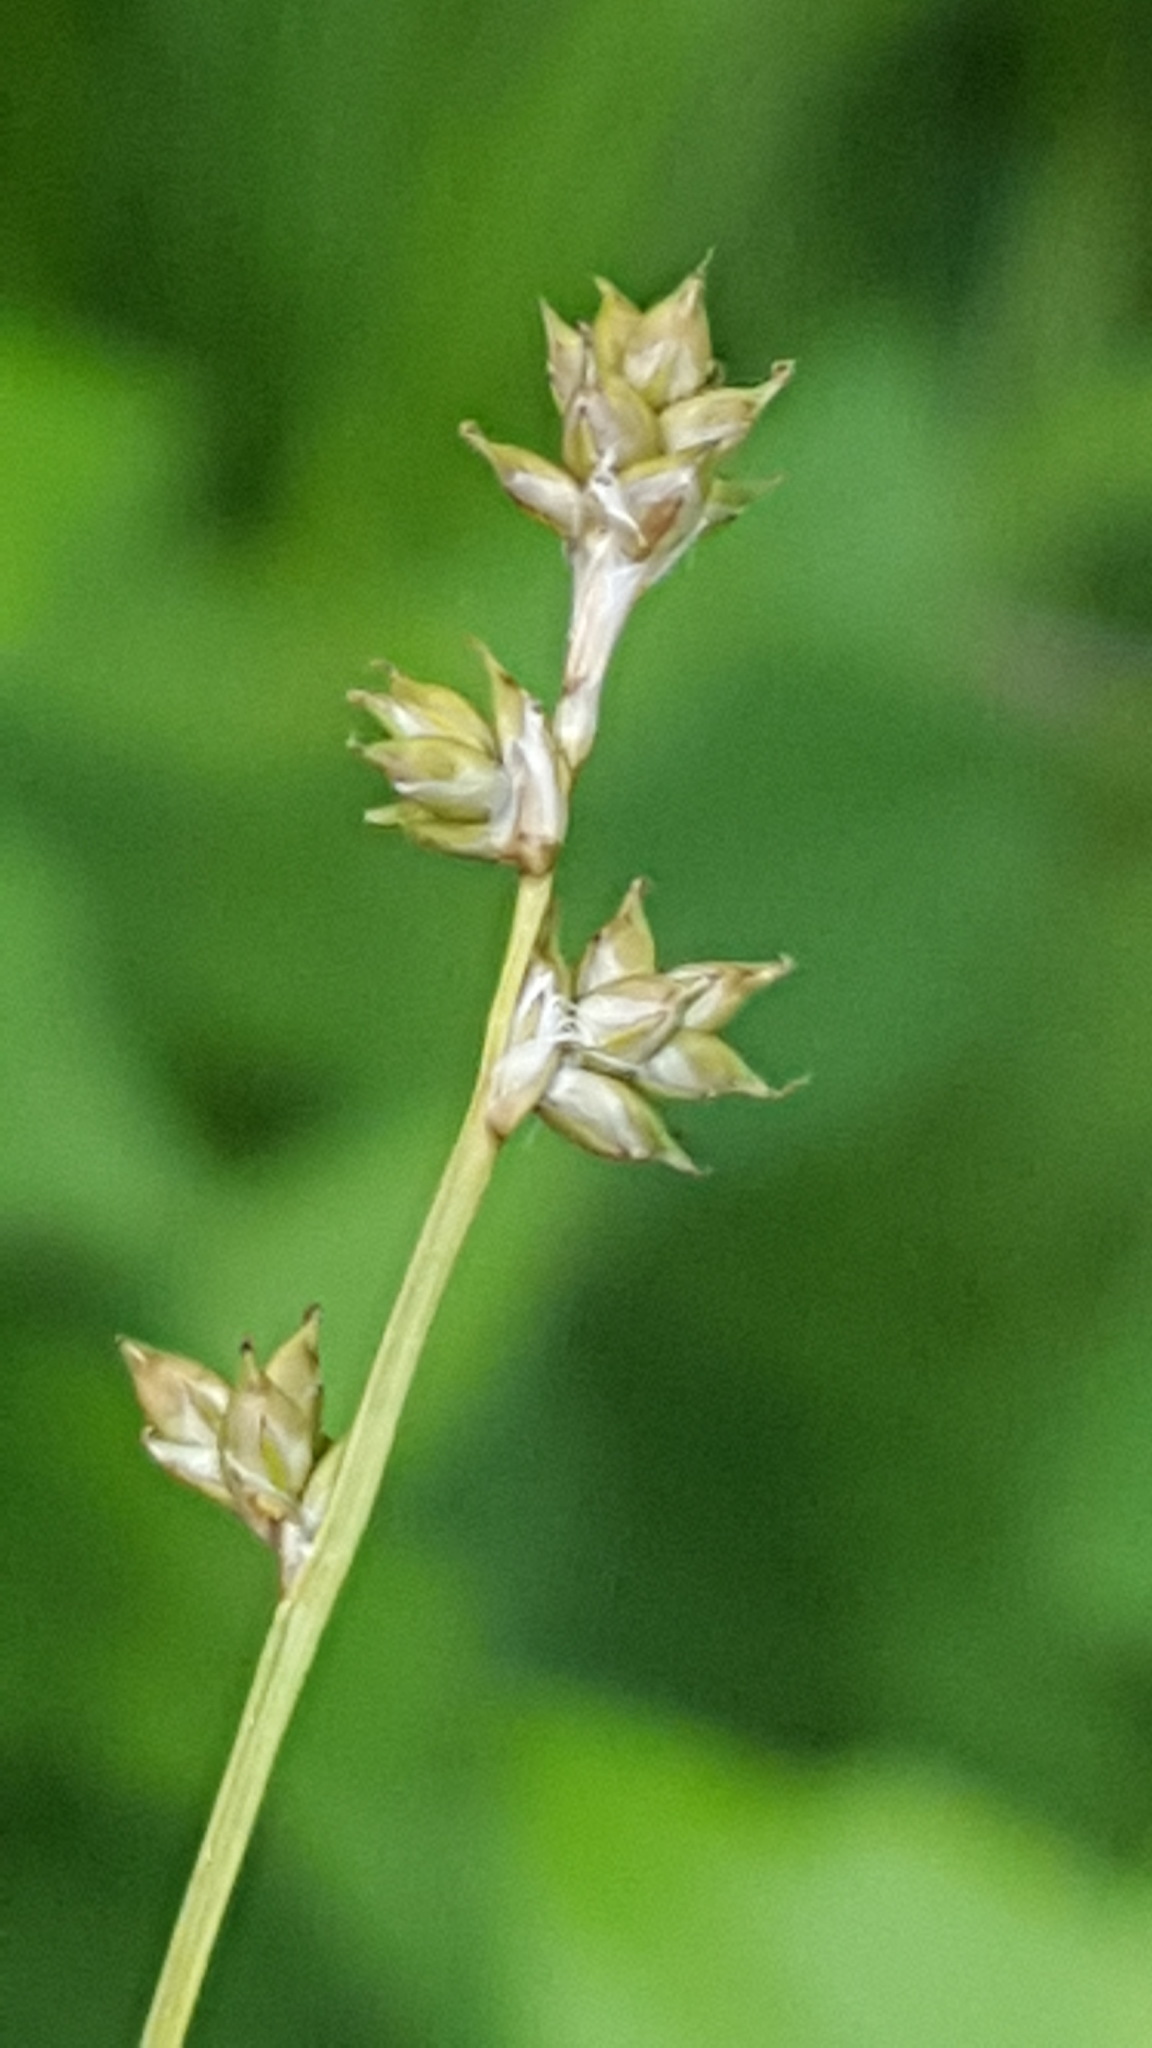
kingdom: Plantae
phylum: Tracheophyta
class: Liliopsida
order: Poales
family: Cyperaceae
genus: Carex
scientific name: Carex brunnescens
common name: Brown sedge
